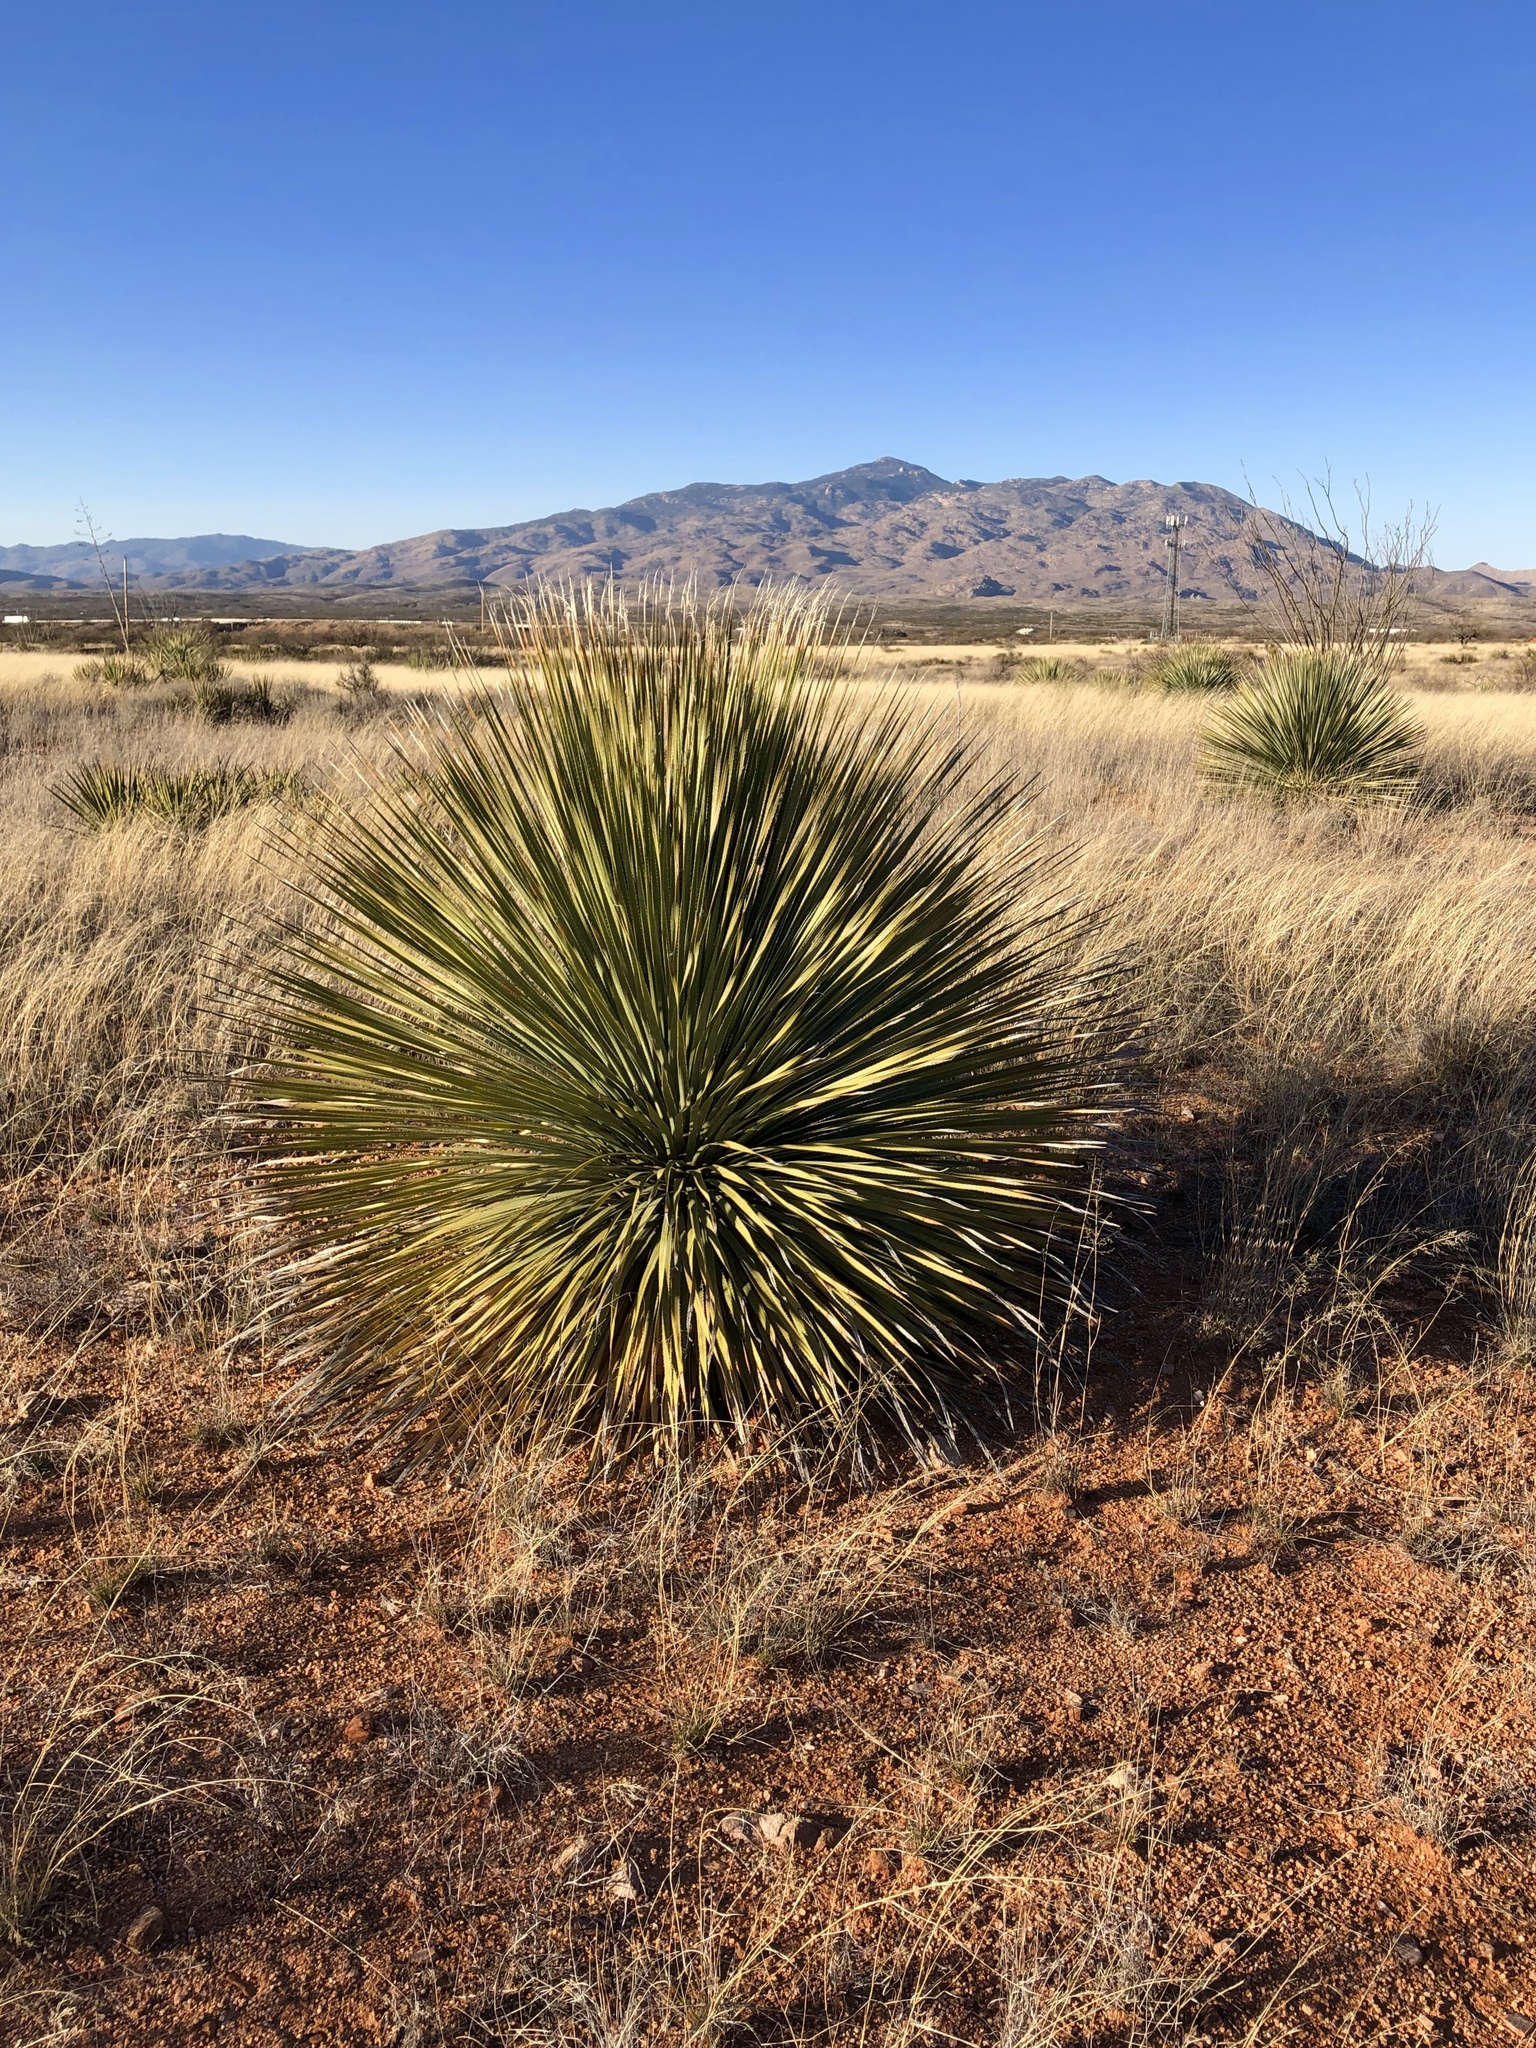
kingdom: Plantae
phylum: Tracheophyta
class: Liliopsida
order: Asparagales
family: Asparagaceae
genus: Dasylirion
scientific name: Dasylirion wheeleri
